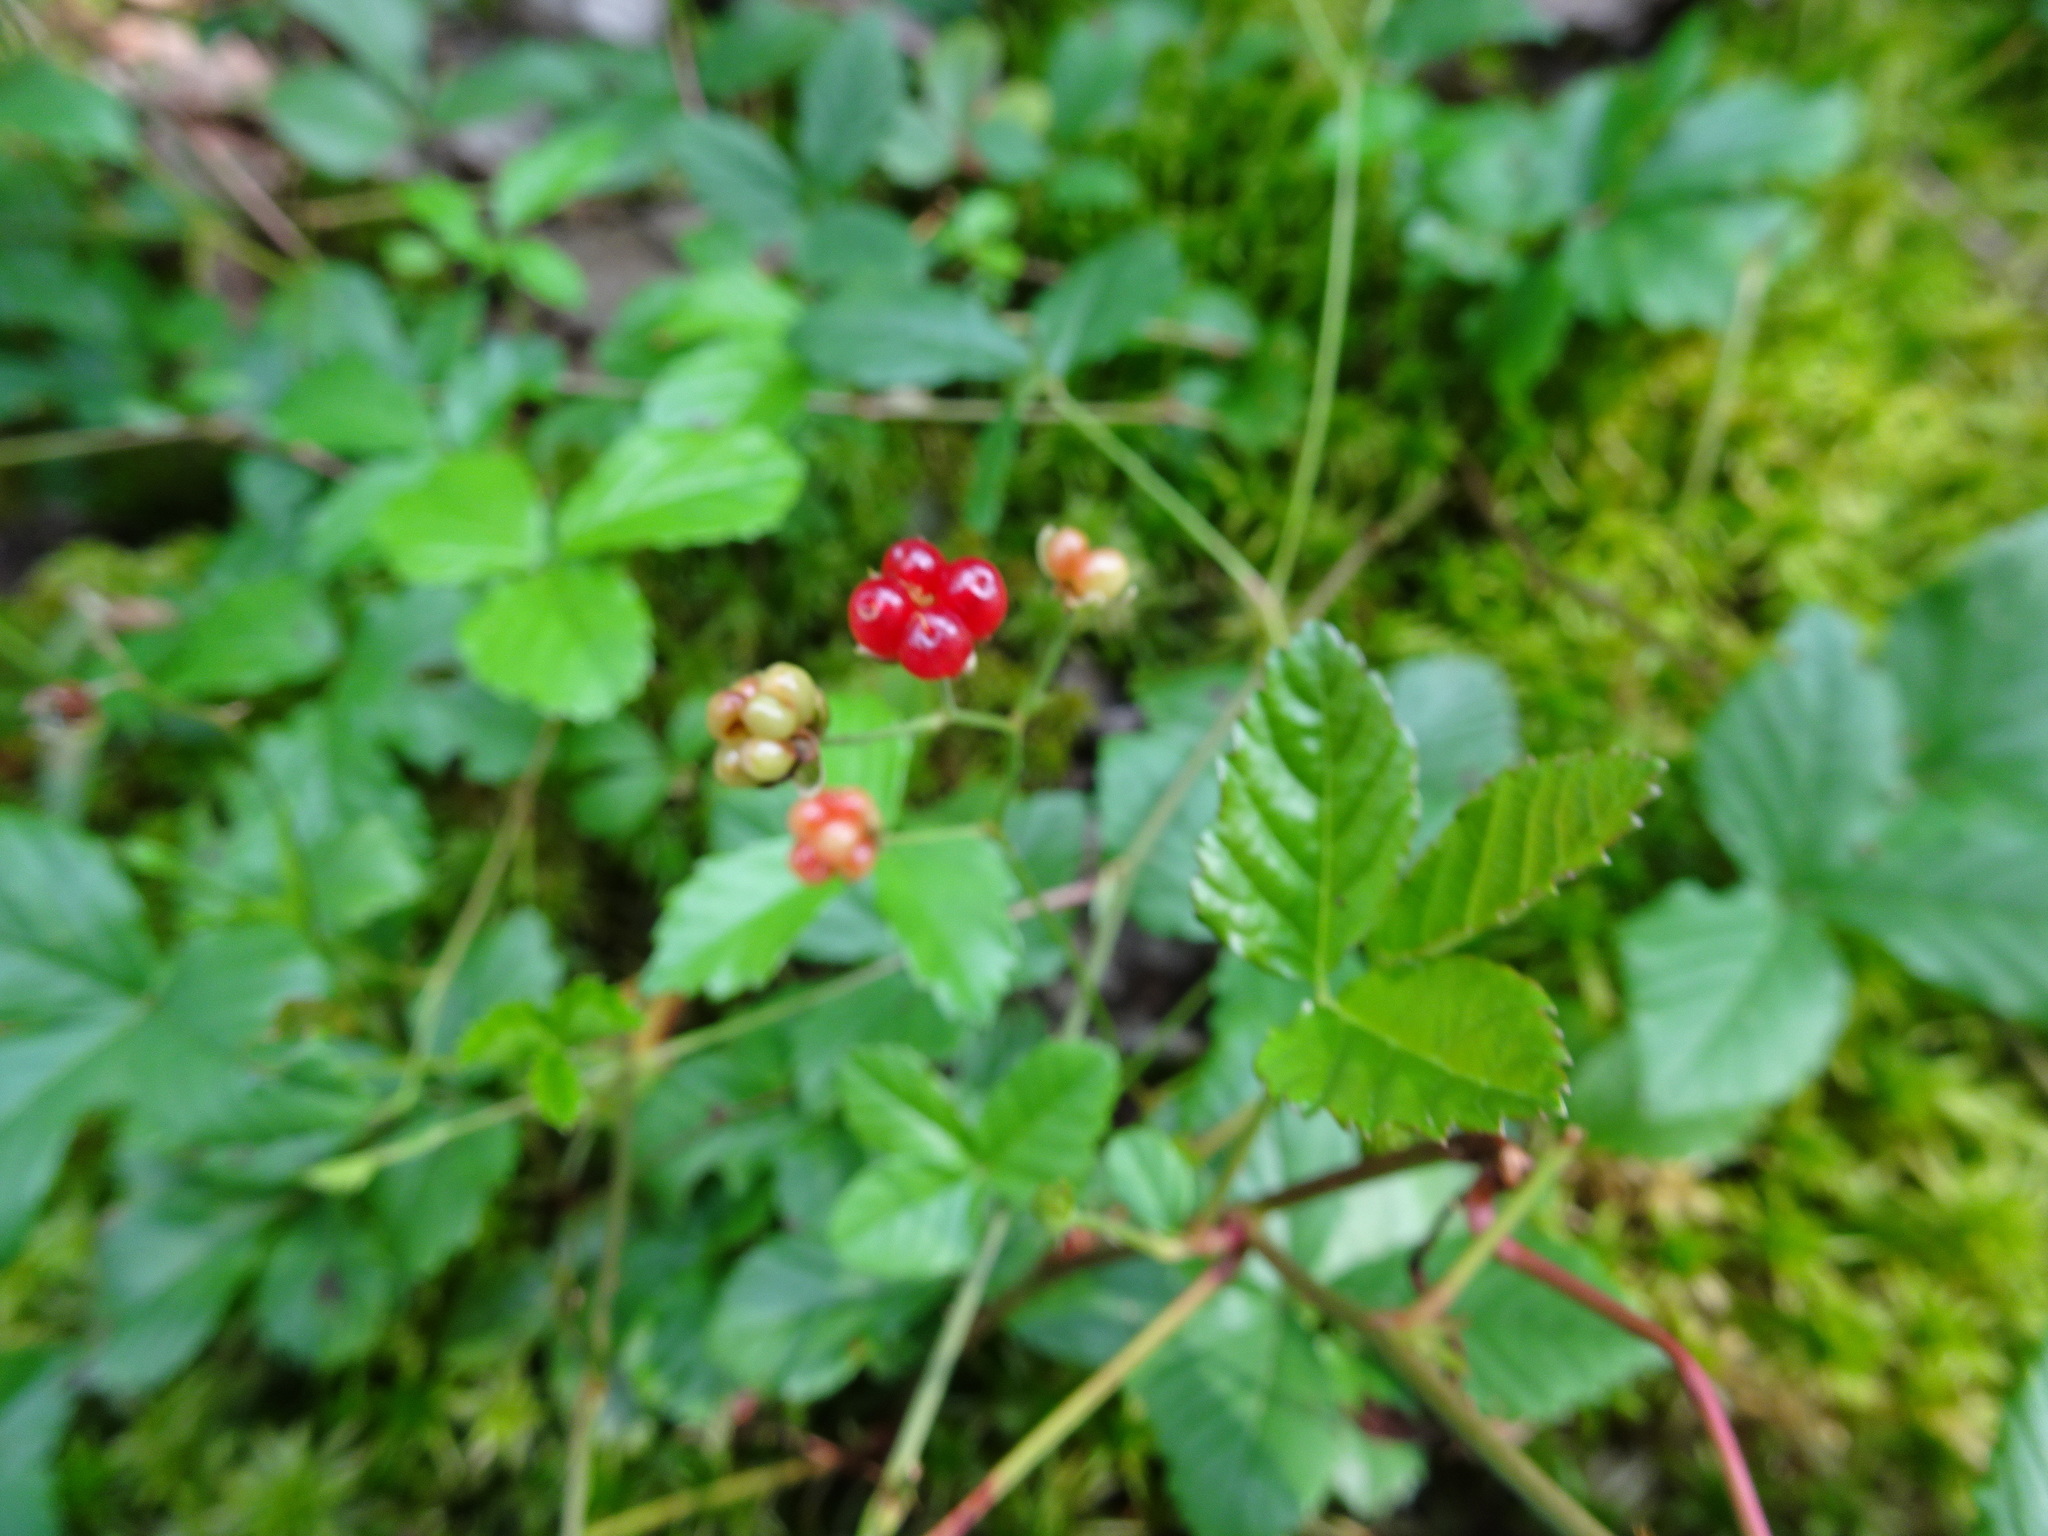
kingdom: Plantae
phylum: Tracheophyta
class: Magnoliopsida
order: Rosales
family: Rosaceae
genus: Rubus
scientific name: Rubus hispidus
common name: Running blackberry
